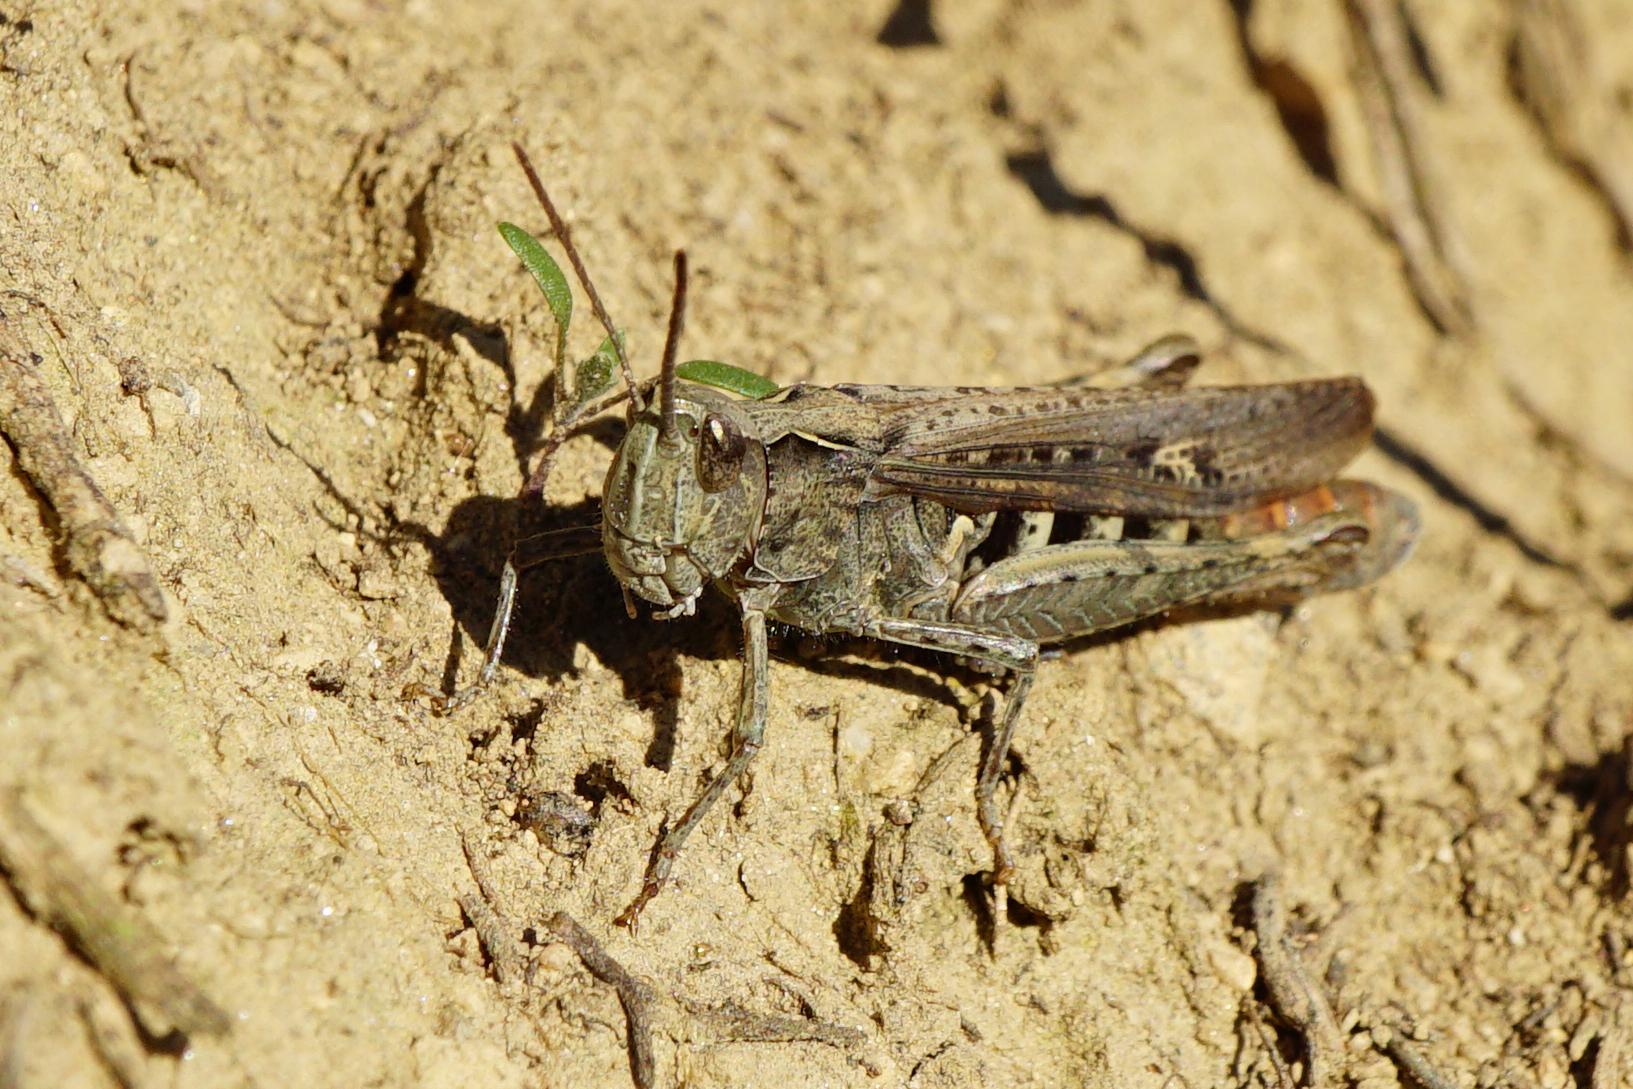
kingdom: Animalia
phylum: Arthropoda
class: Insecta
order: Orthoptera
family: Acrididae
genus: Glyptobothrus
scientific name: Glyptobothrus
